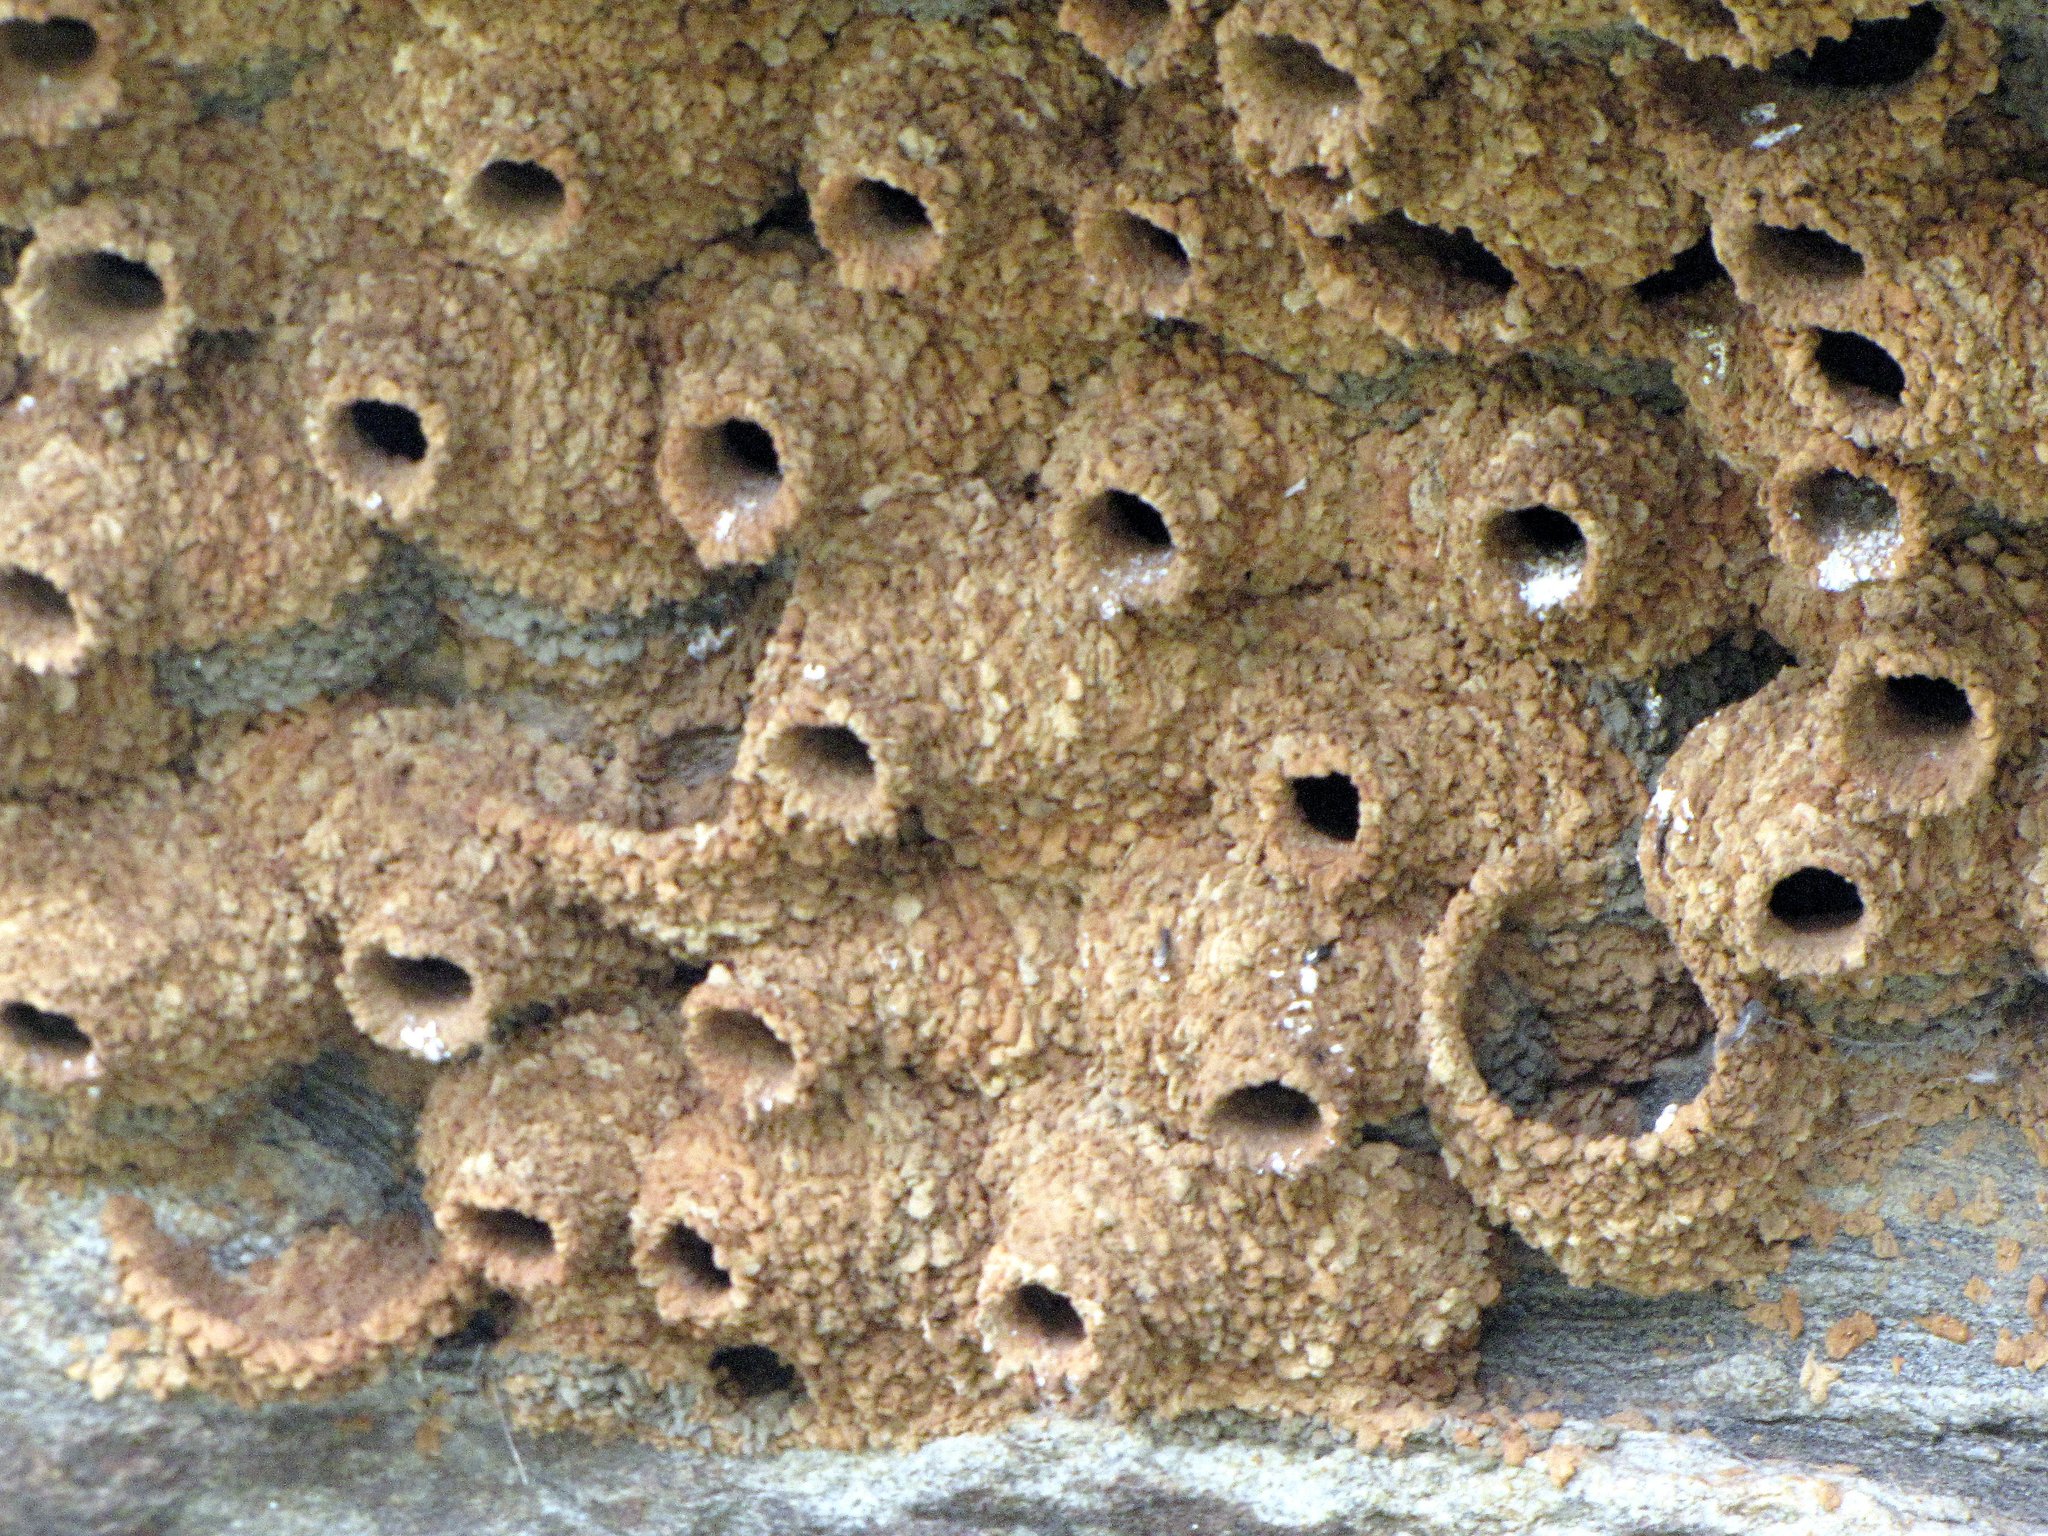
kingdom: Animalia
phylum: Chordata
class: Aves
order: Passeriformes
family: Hirundinidae
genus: Petrochelidon
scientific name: Petrochelidon fluvicola
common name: Streak-throated swallow
